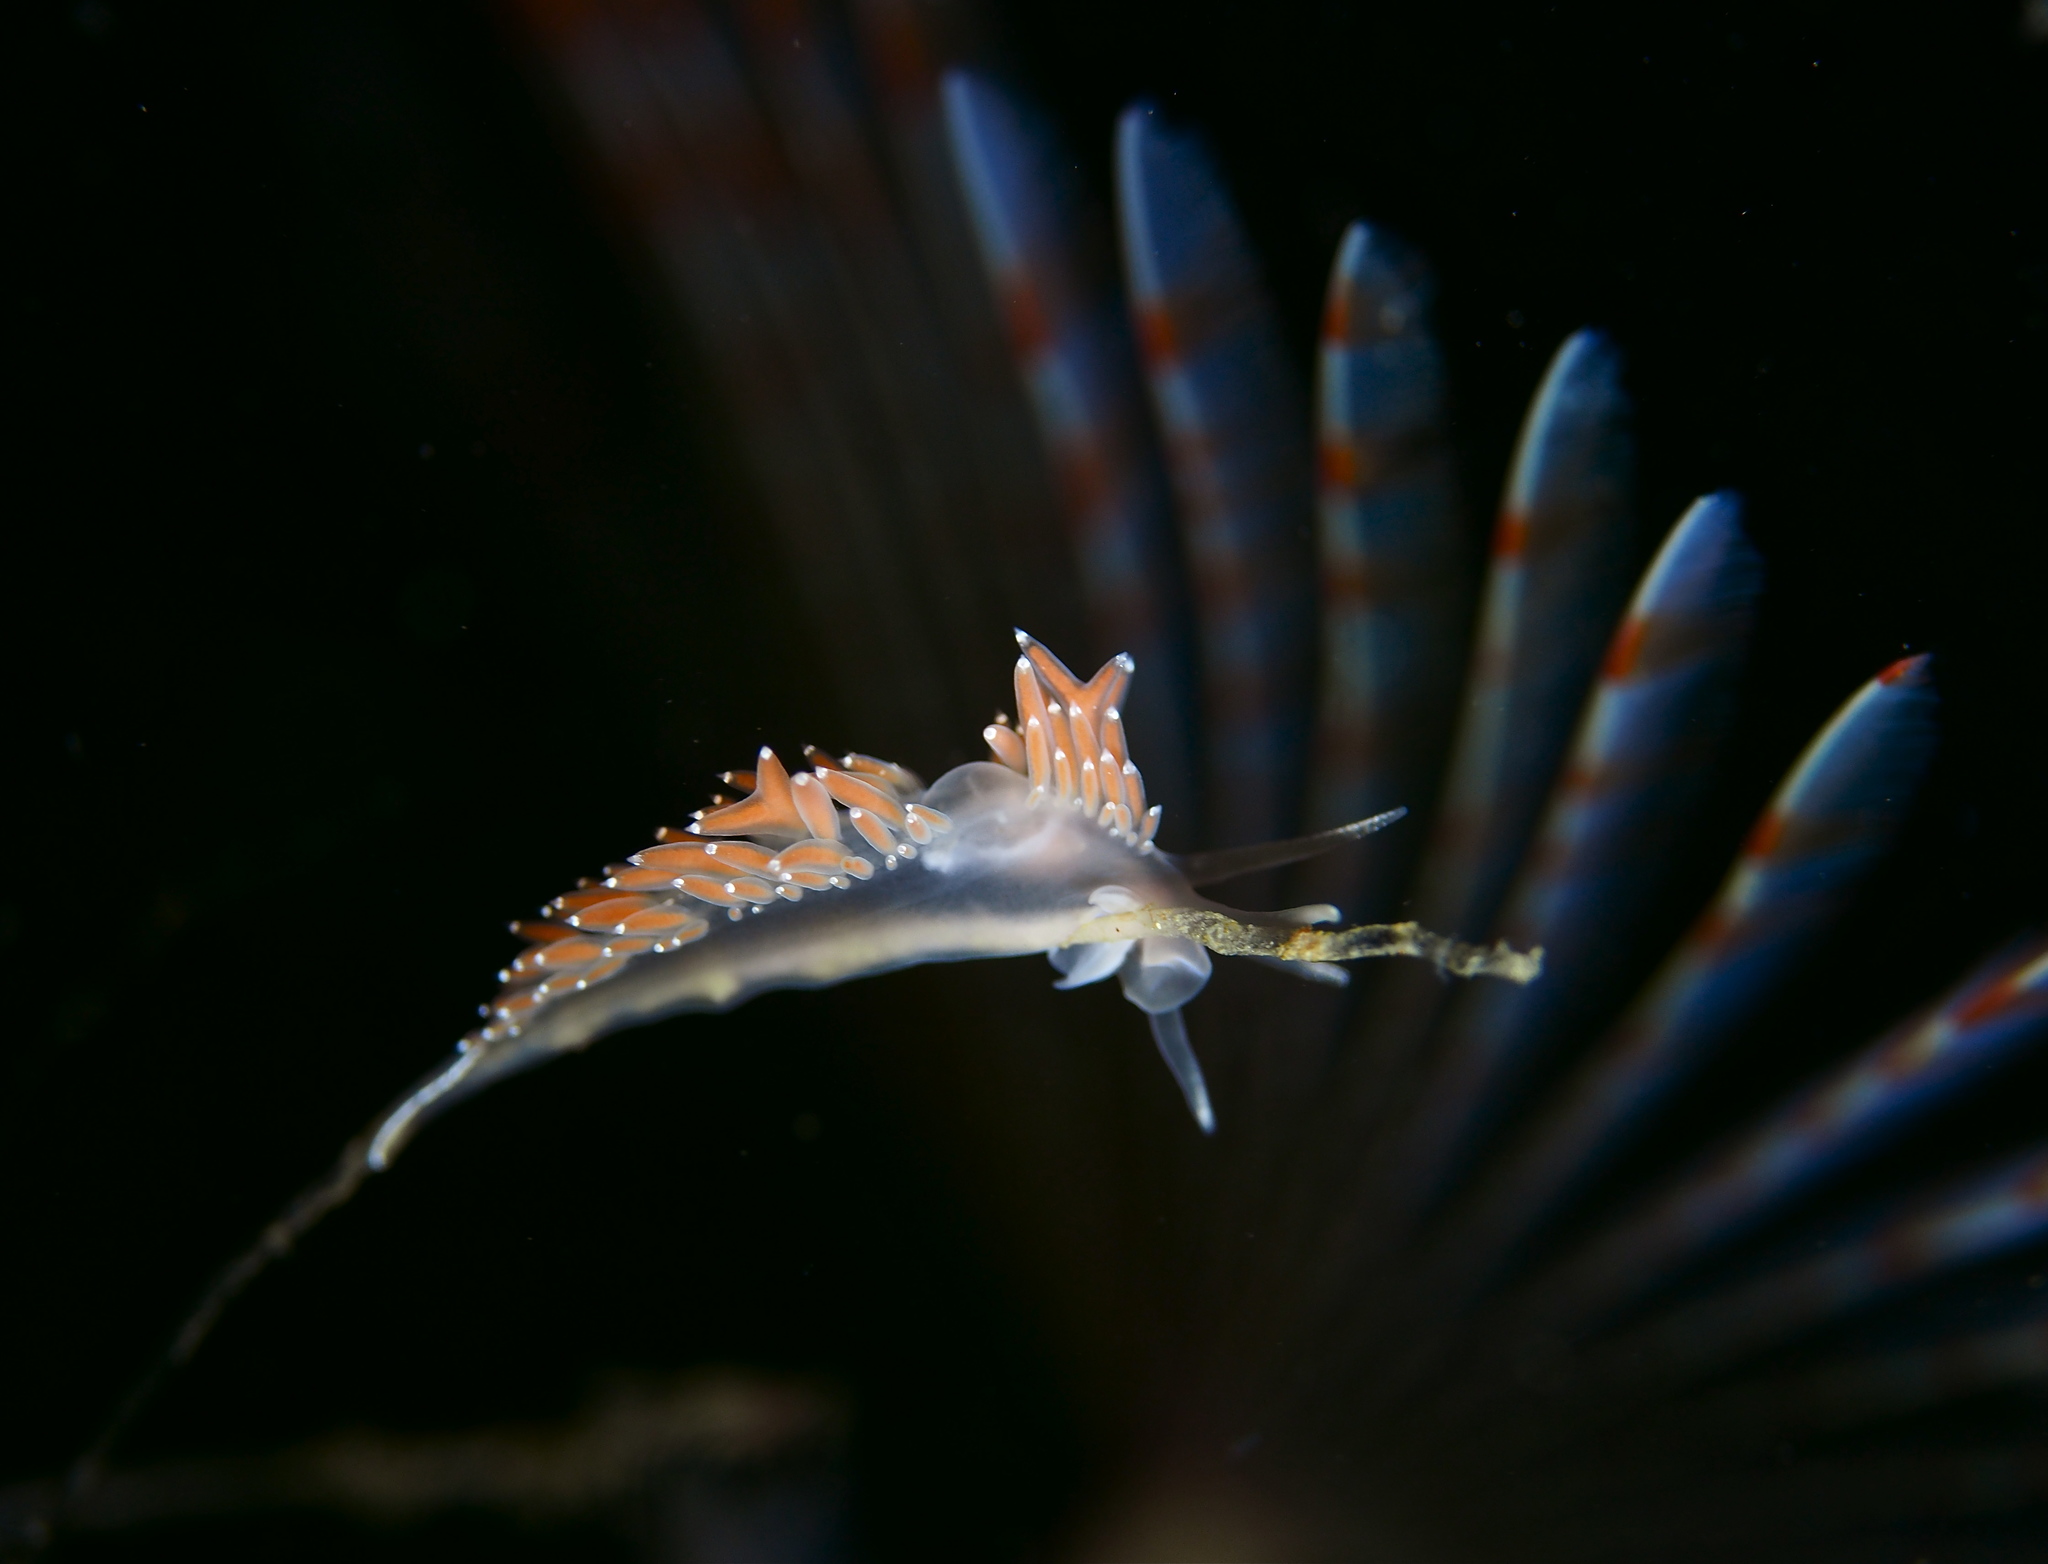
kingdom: Animalia
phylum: Mollusca
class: Gastropoda
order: Nudibranchia
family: Coryphellidae
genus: Coryphella
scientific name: Coryphella verrucosa
